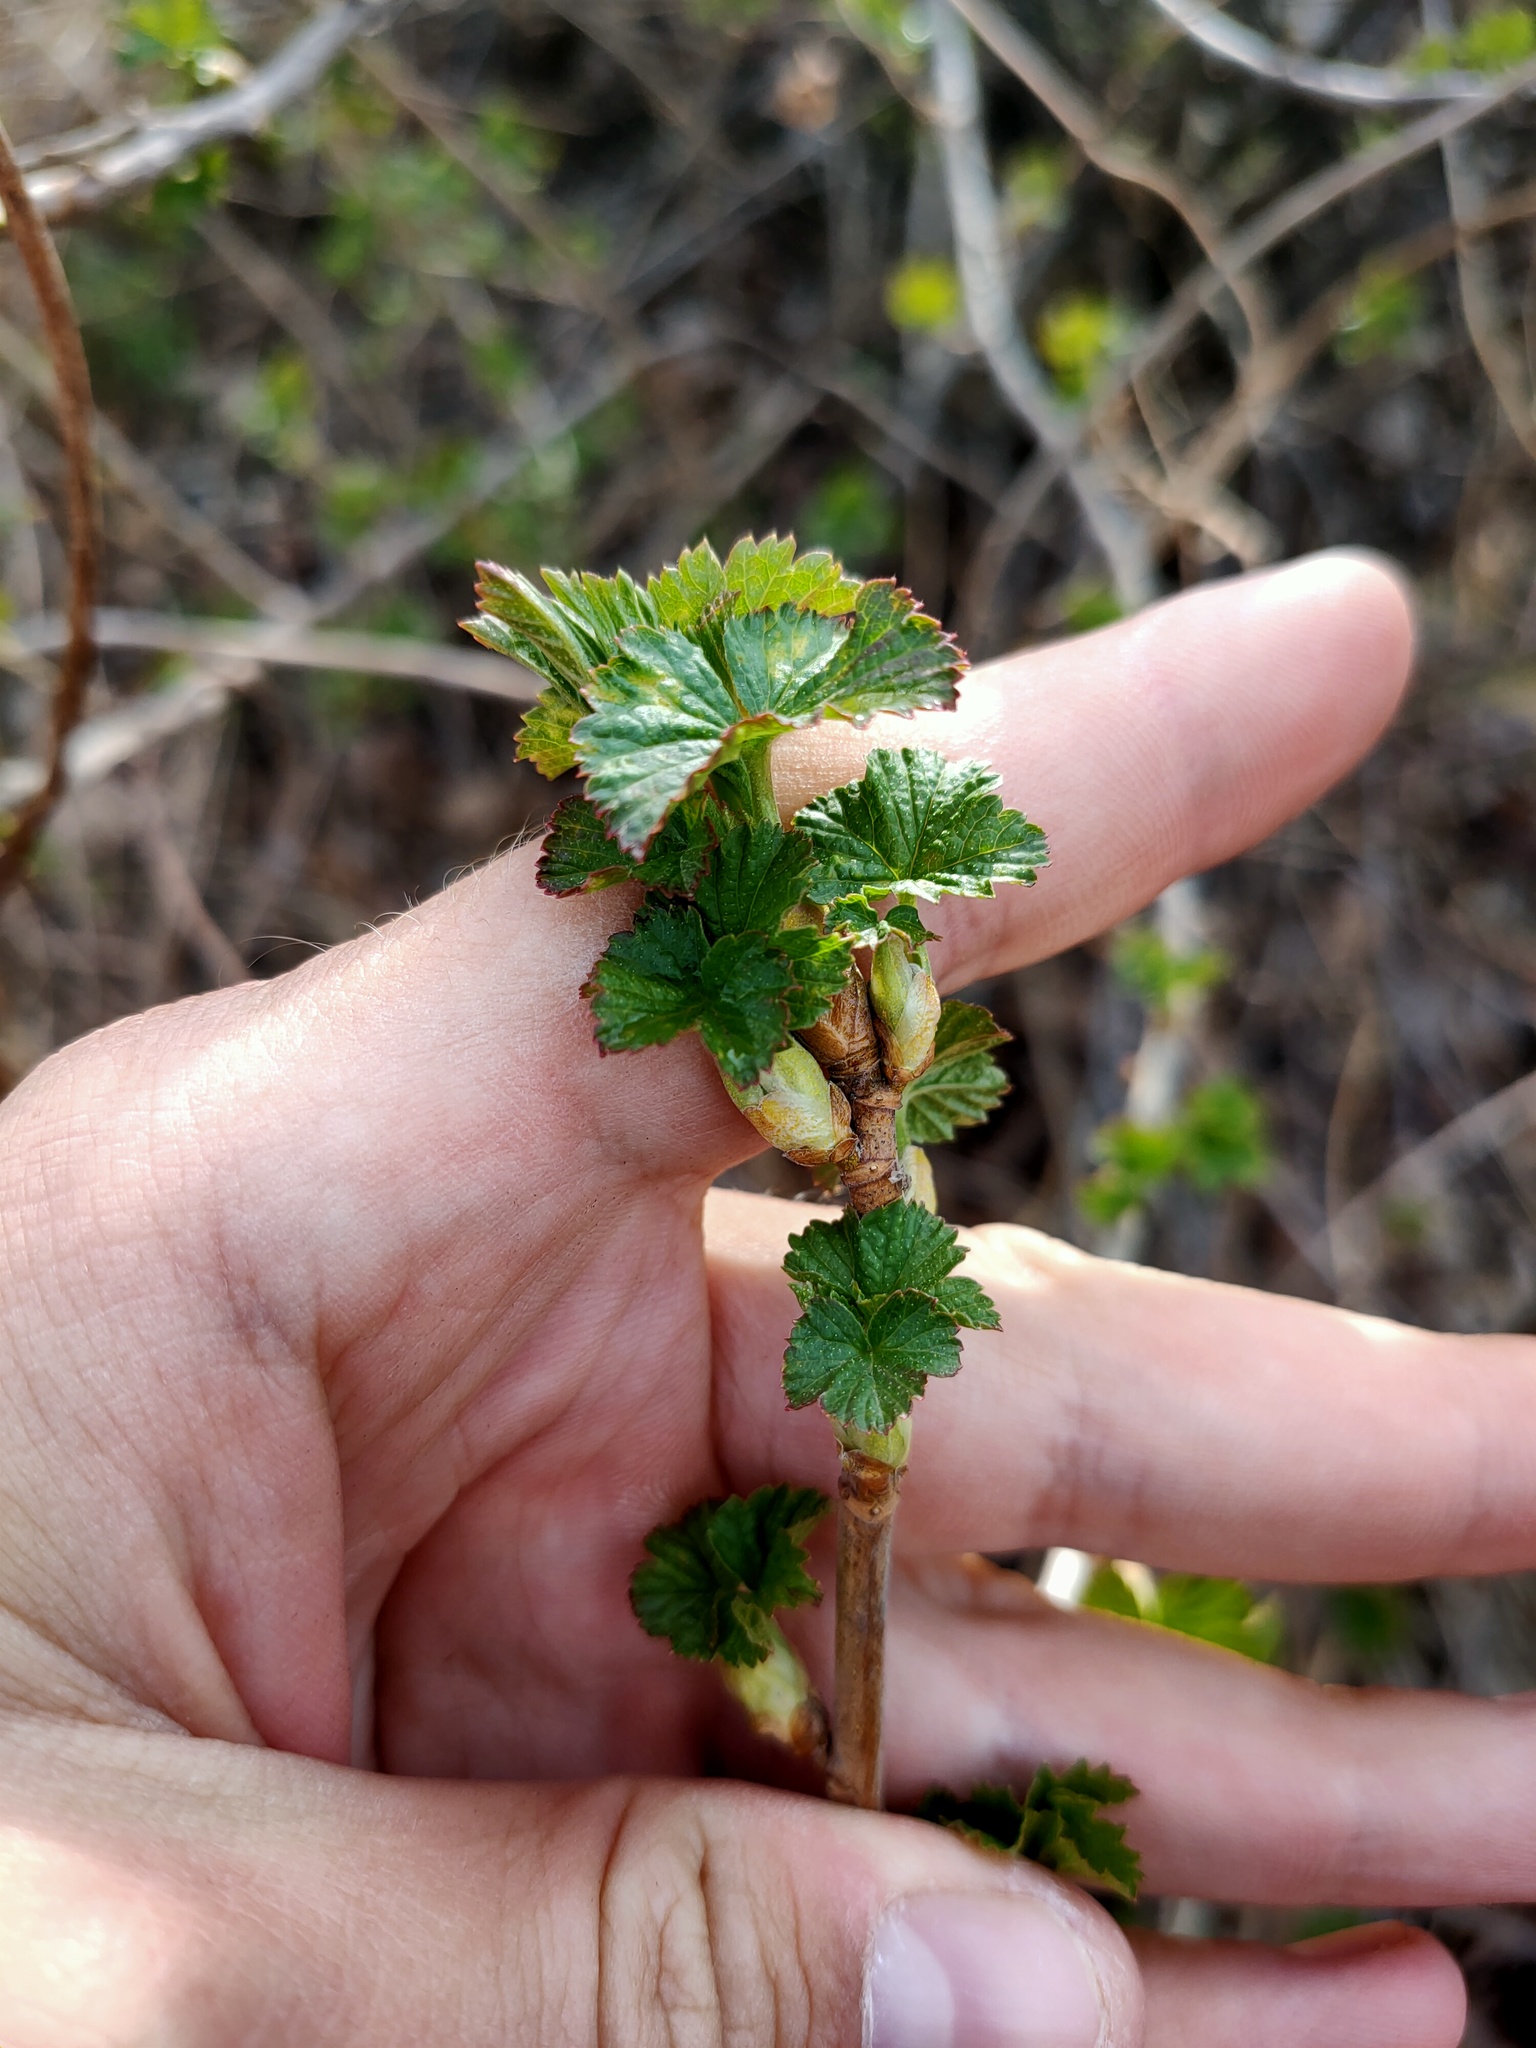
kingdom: Plantae
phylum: Tracheophyta
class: Magnoliopsida
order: Saxifragales
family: Grossulariaceae
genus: Ribes
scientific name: Ribes nigrum
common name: Black currant
